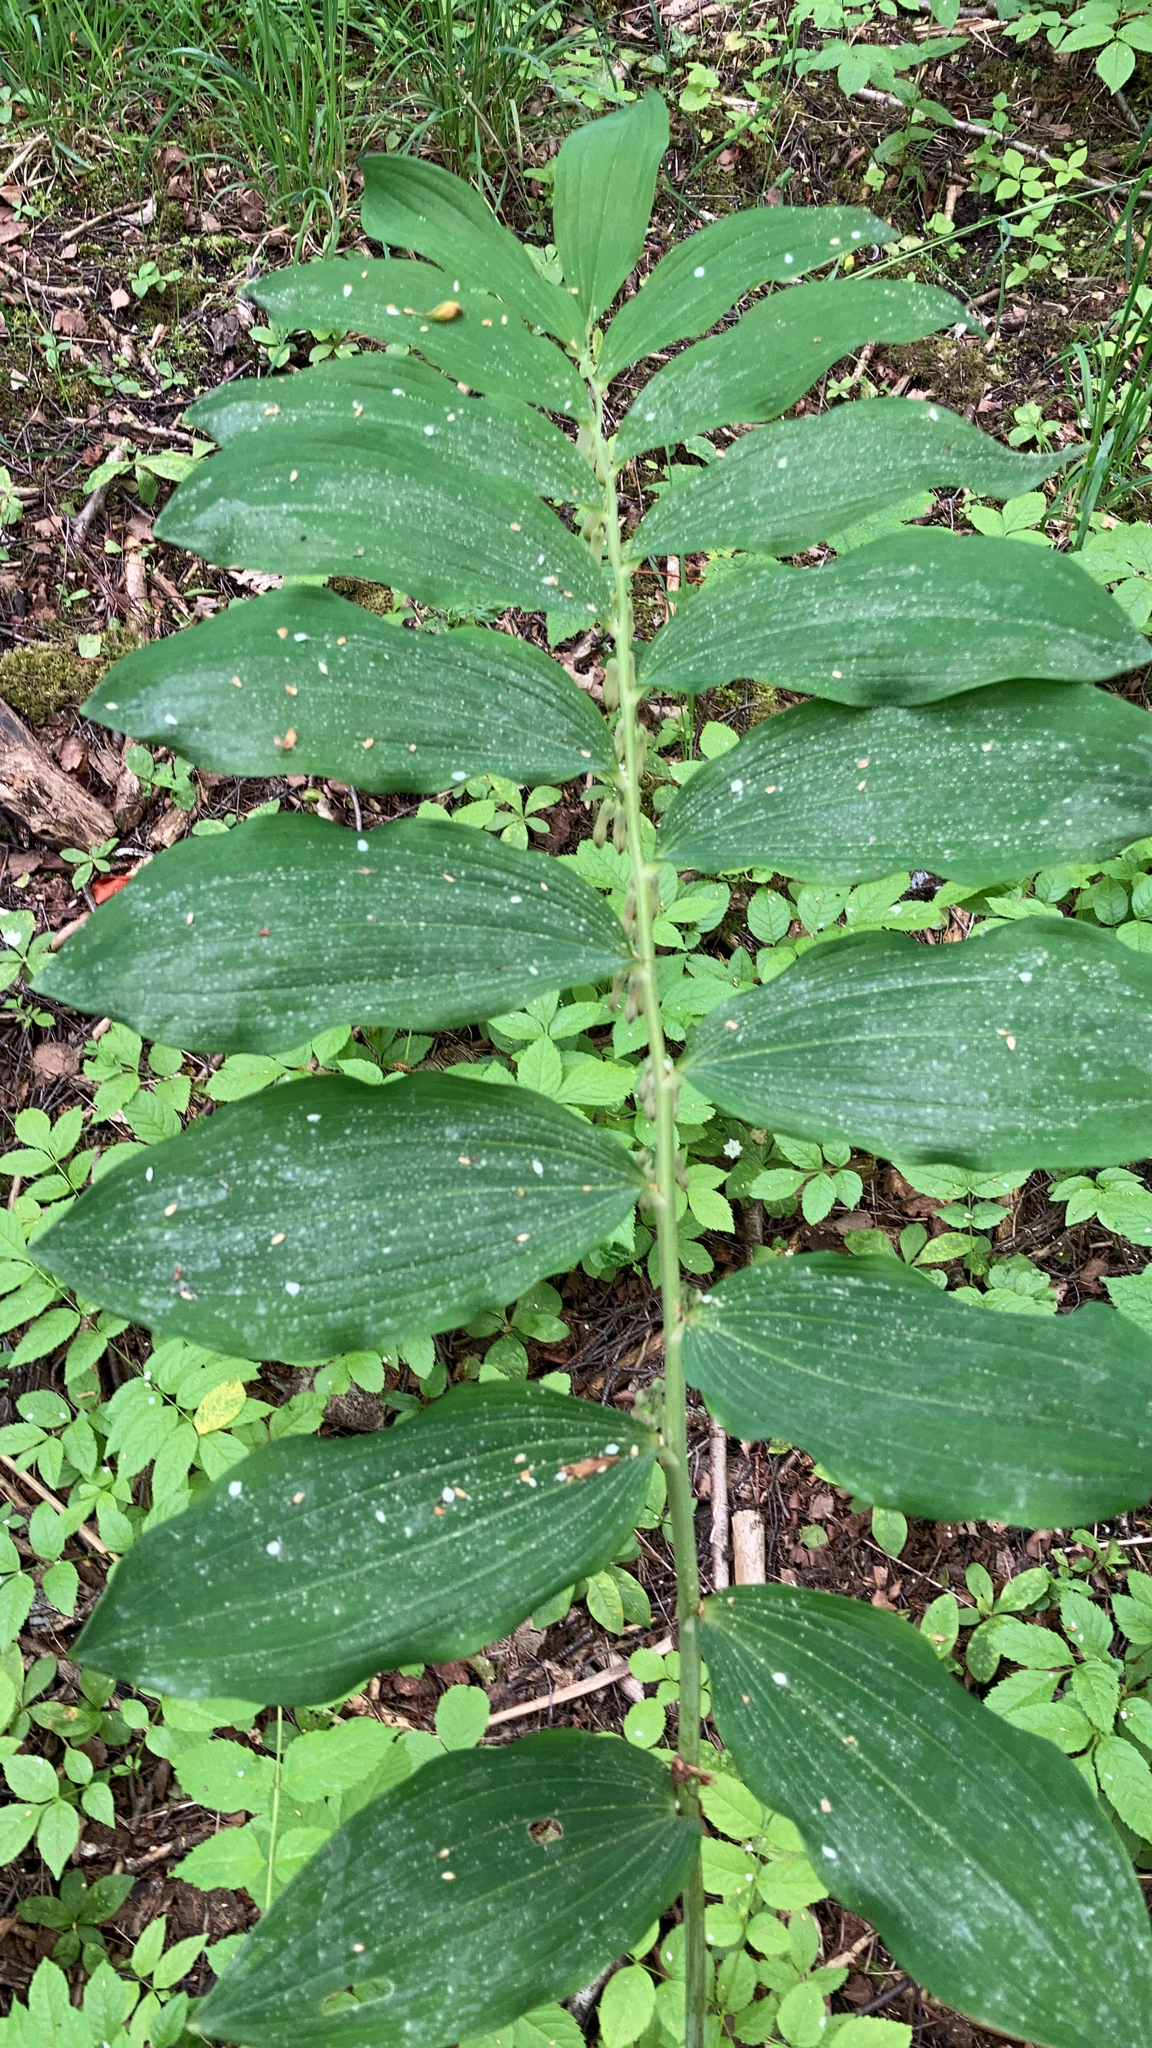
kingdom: Plantae
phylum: Tracheophyta
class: Liliopsida
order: Asparagales
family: Asparagaceae
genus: Polygonatum
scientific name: Polygonatum multiflorum
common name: Solomon's-seal
